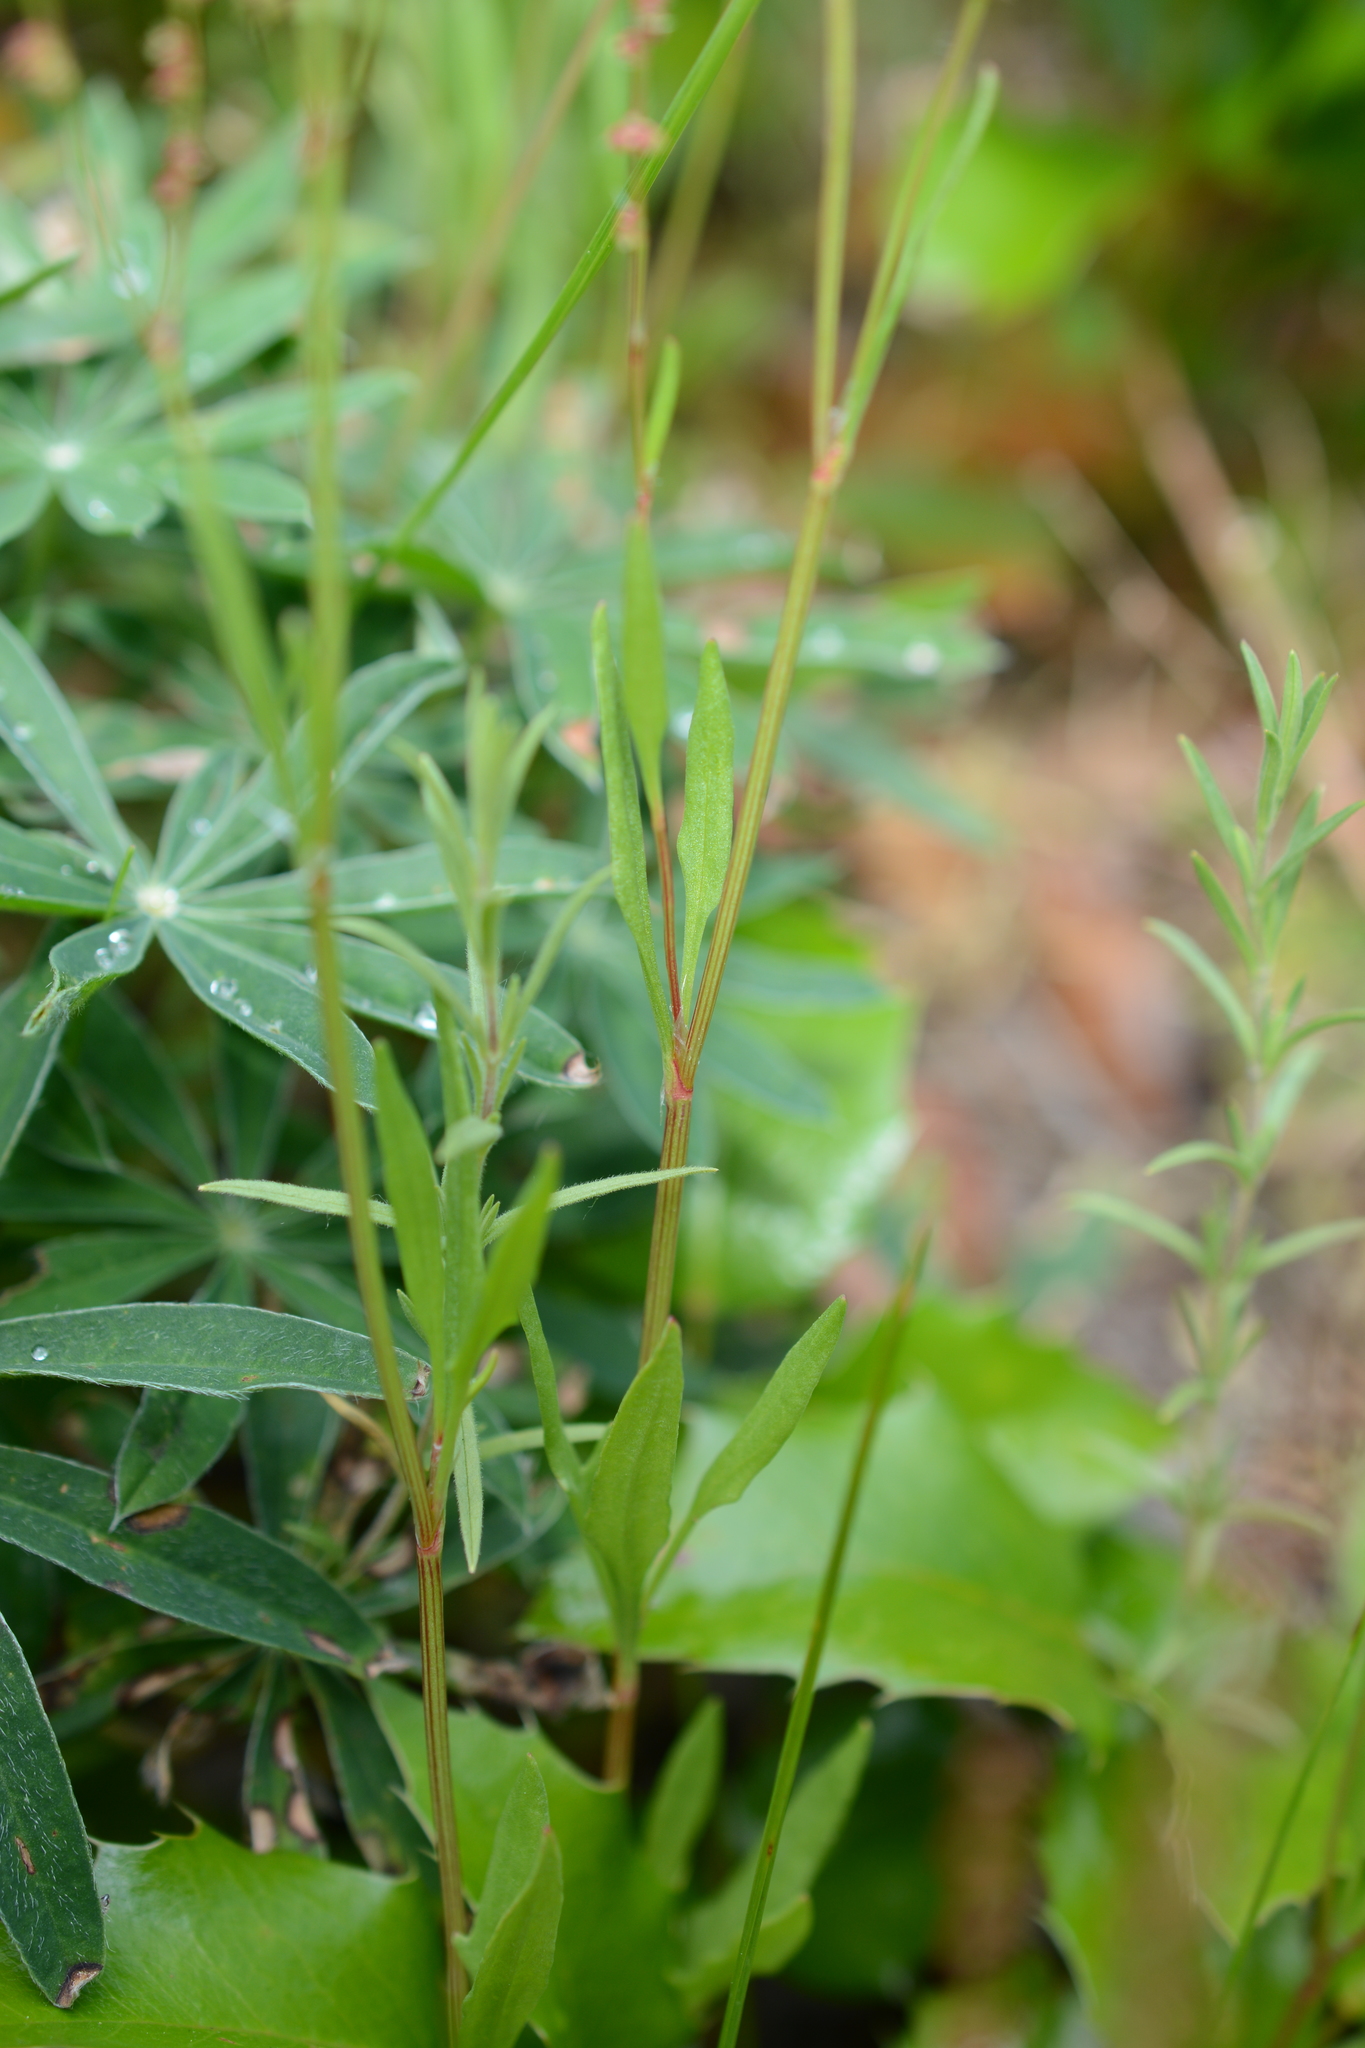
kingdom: Plantae
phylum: Tracheophyta
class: Magnoliopsida
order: Caryophyllales
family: Polygonaceae
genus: Rumex
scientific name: Rumex acetosella
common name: Common sheep sorrel
